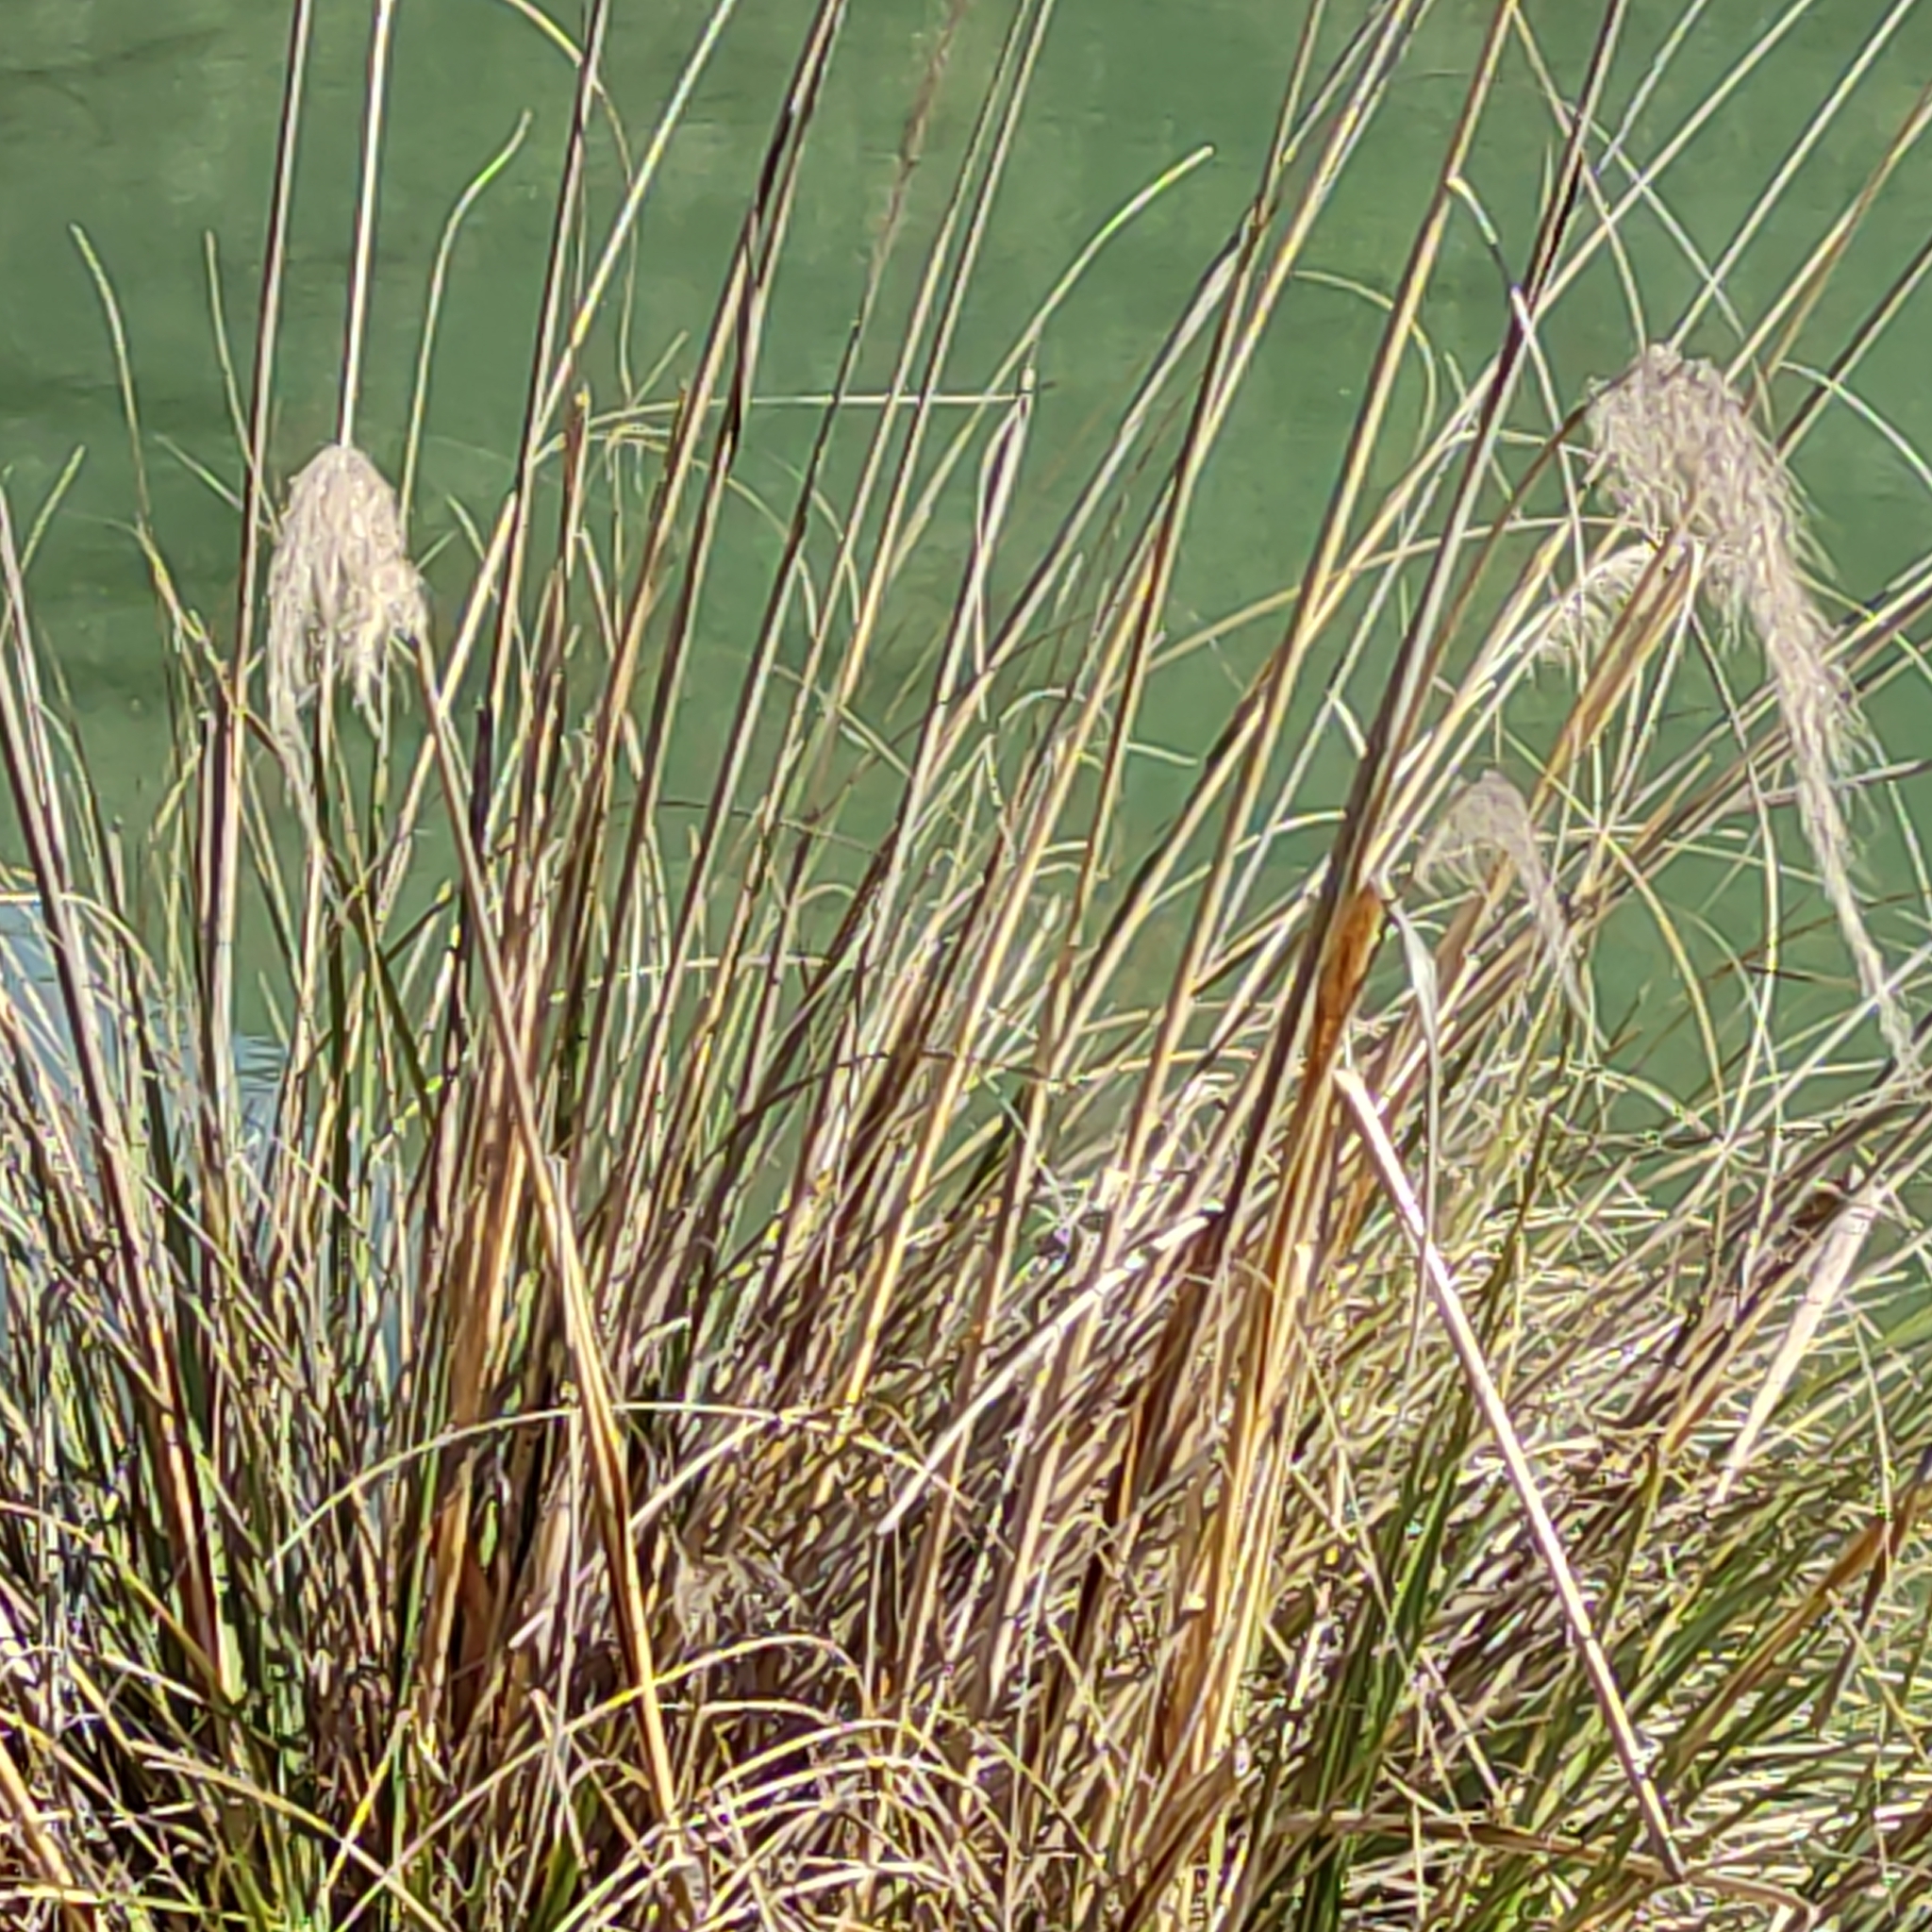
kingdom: Plantae
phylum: Tracheophyta
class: Liliopsida
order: Poales
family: Poaceae
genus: Austroderia
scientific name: Austroderia richardii
